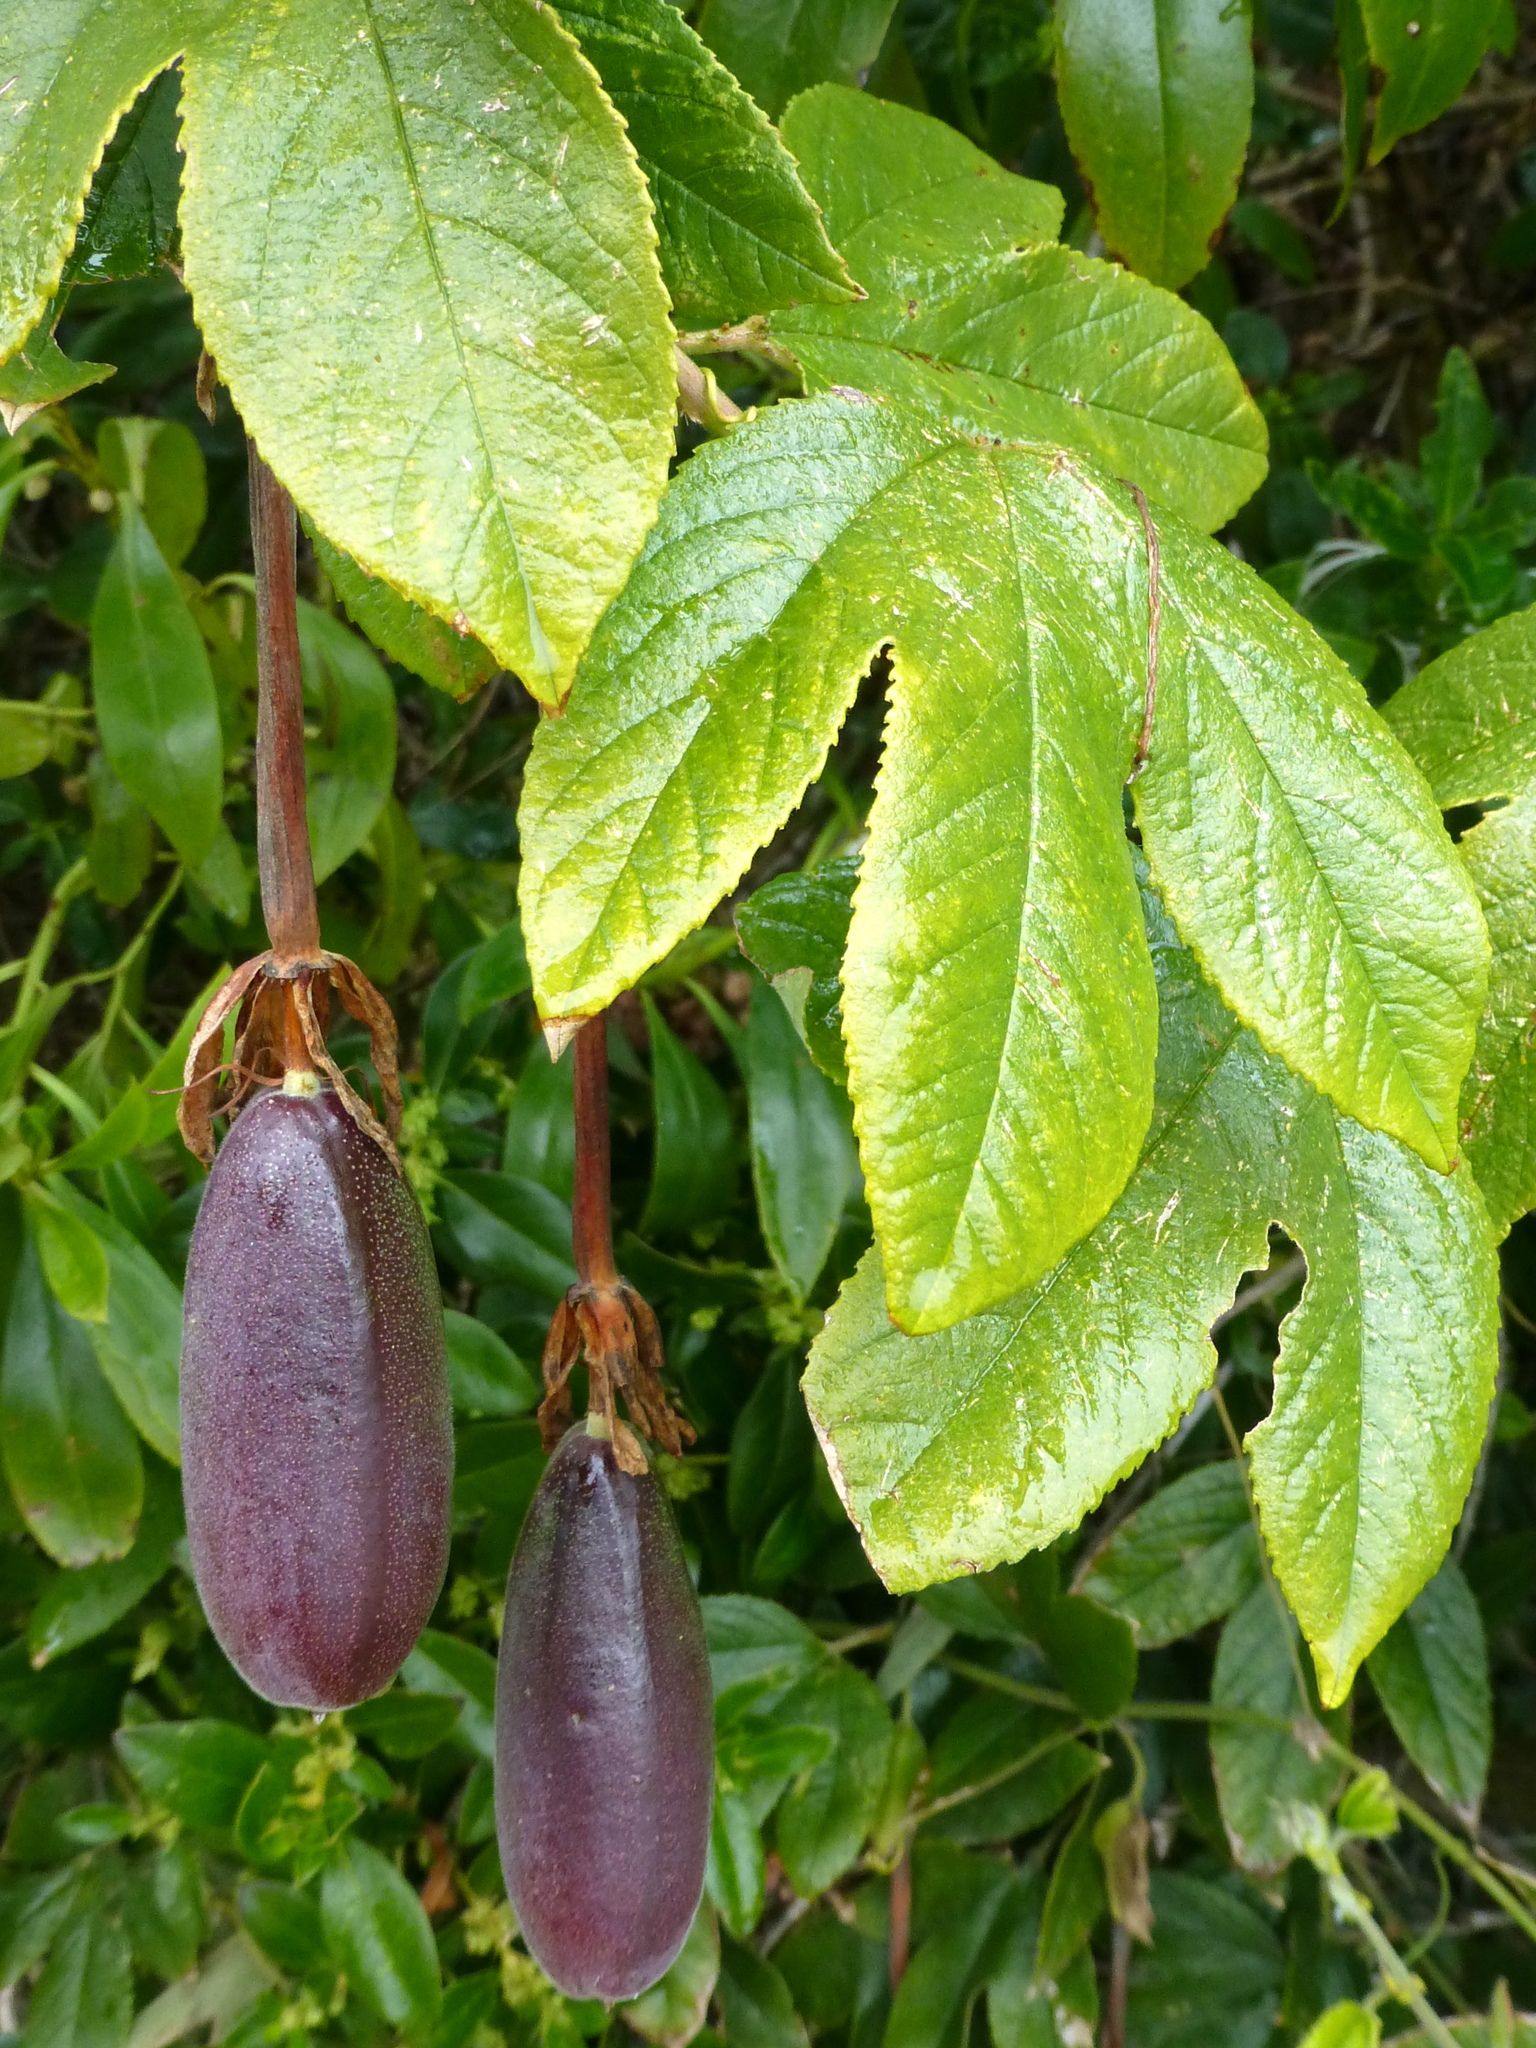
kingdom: Plantae
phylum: Tracheophyta
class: Magnoliopsida
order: Malpighiales
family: Passifloraceae
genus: Passiflora
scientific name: Passiflora tripartita
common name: Banana poka
